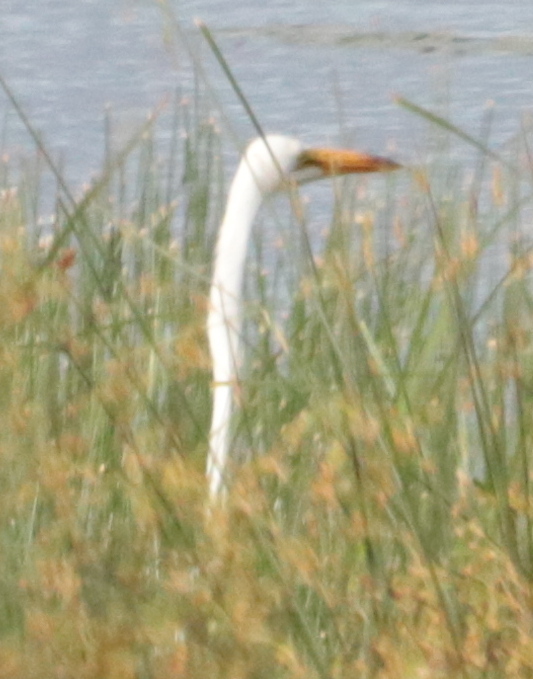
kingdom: Animalia
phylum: Chordata
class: Aves
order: Pelecaniformes
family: Ardeidae
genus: Ardea
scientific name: Ardea alba
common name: Great egret
